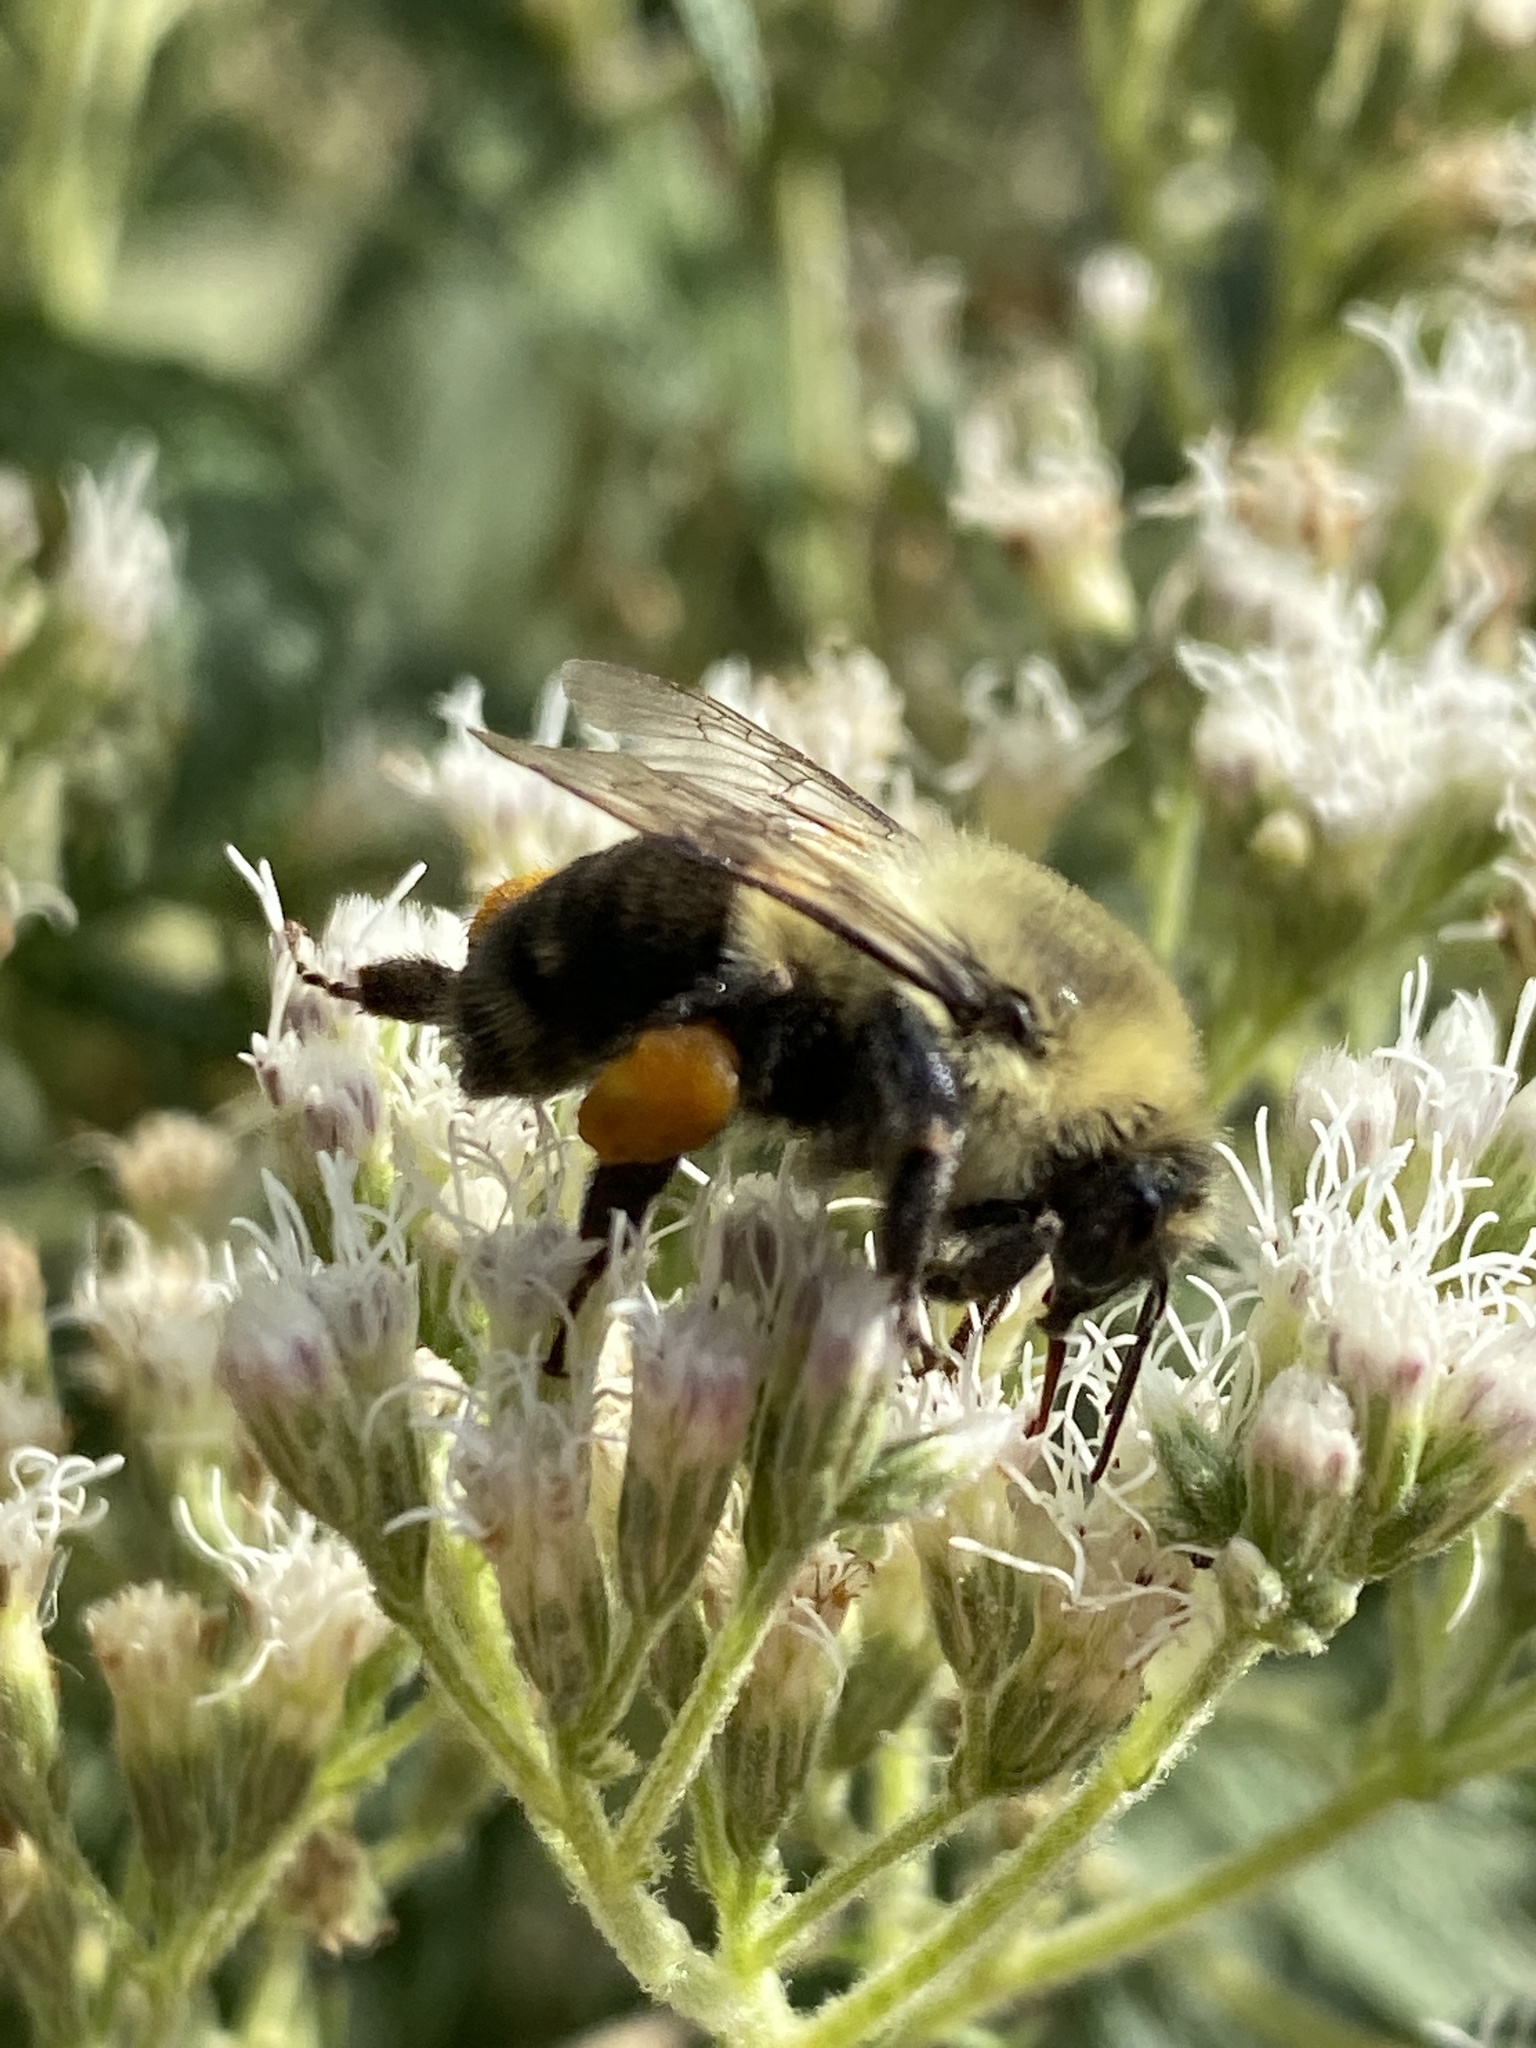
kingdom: Animalia
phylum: Arthropoda
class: Insecta
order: Hymenoptera
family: Apidae
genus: Bombus
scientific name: Bombus impatiens
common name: Common eastern bumble bee
